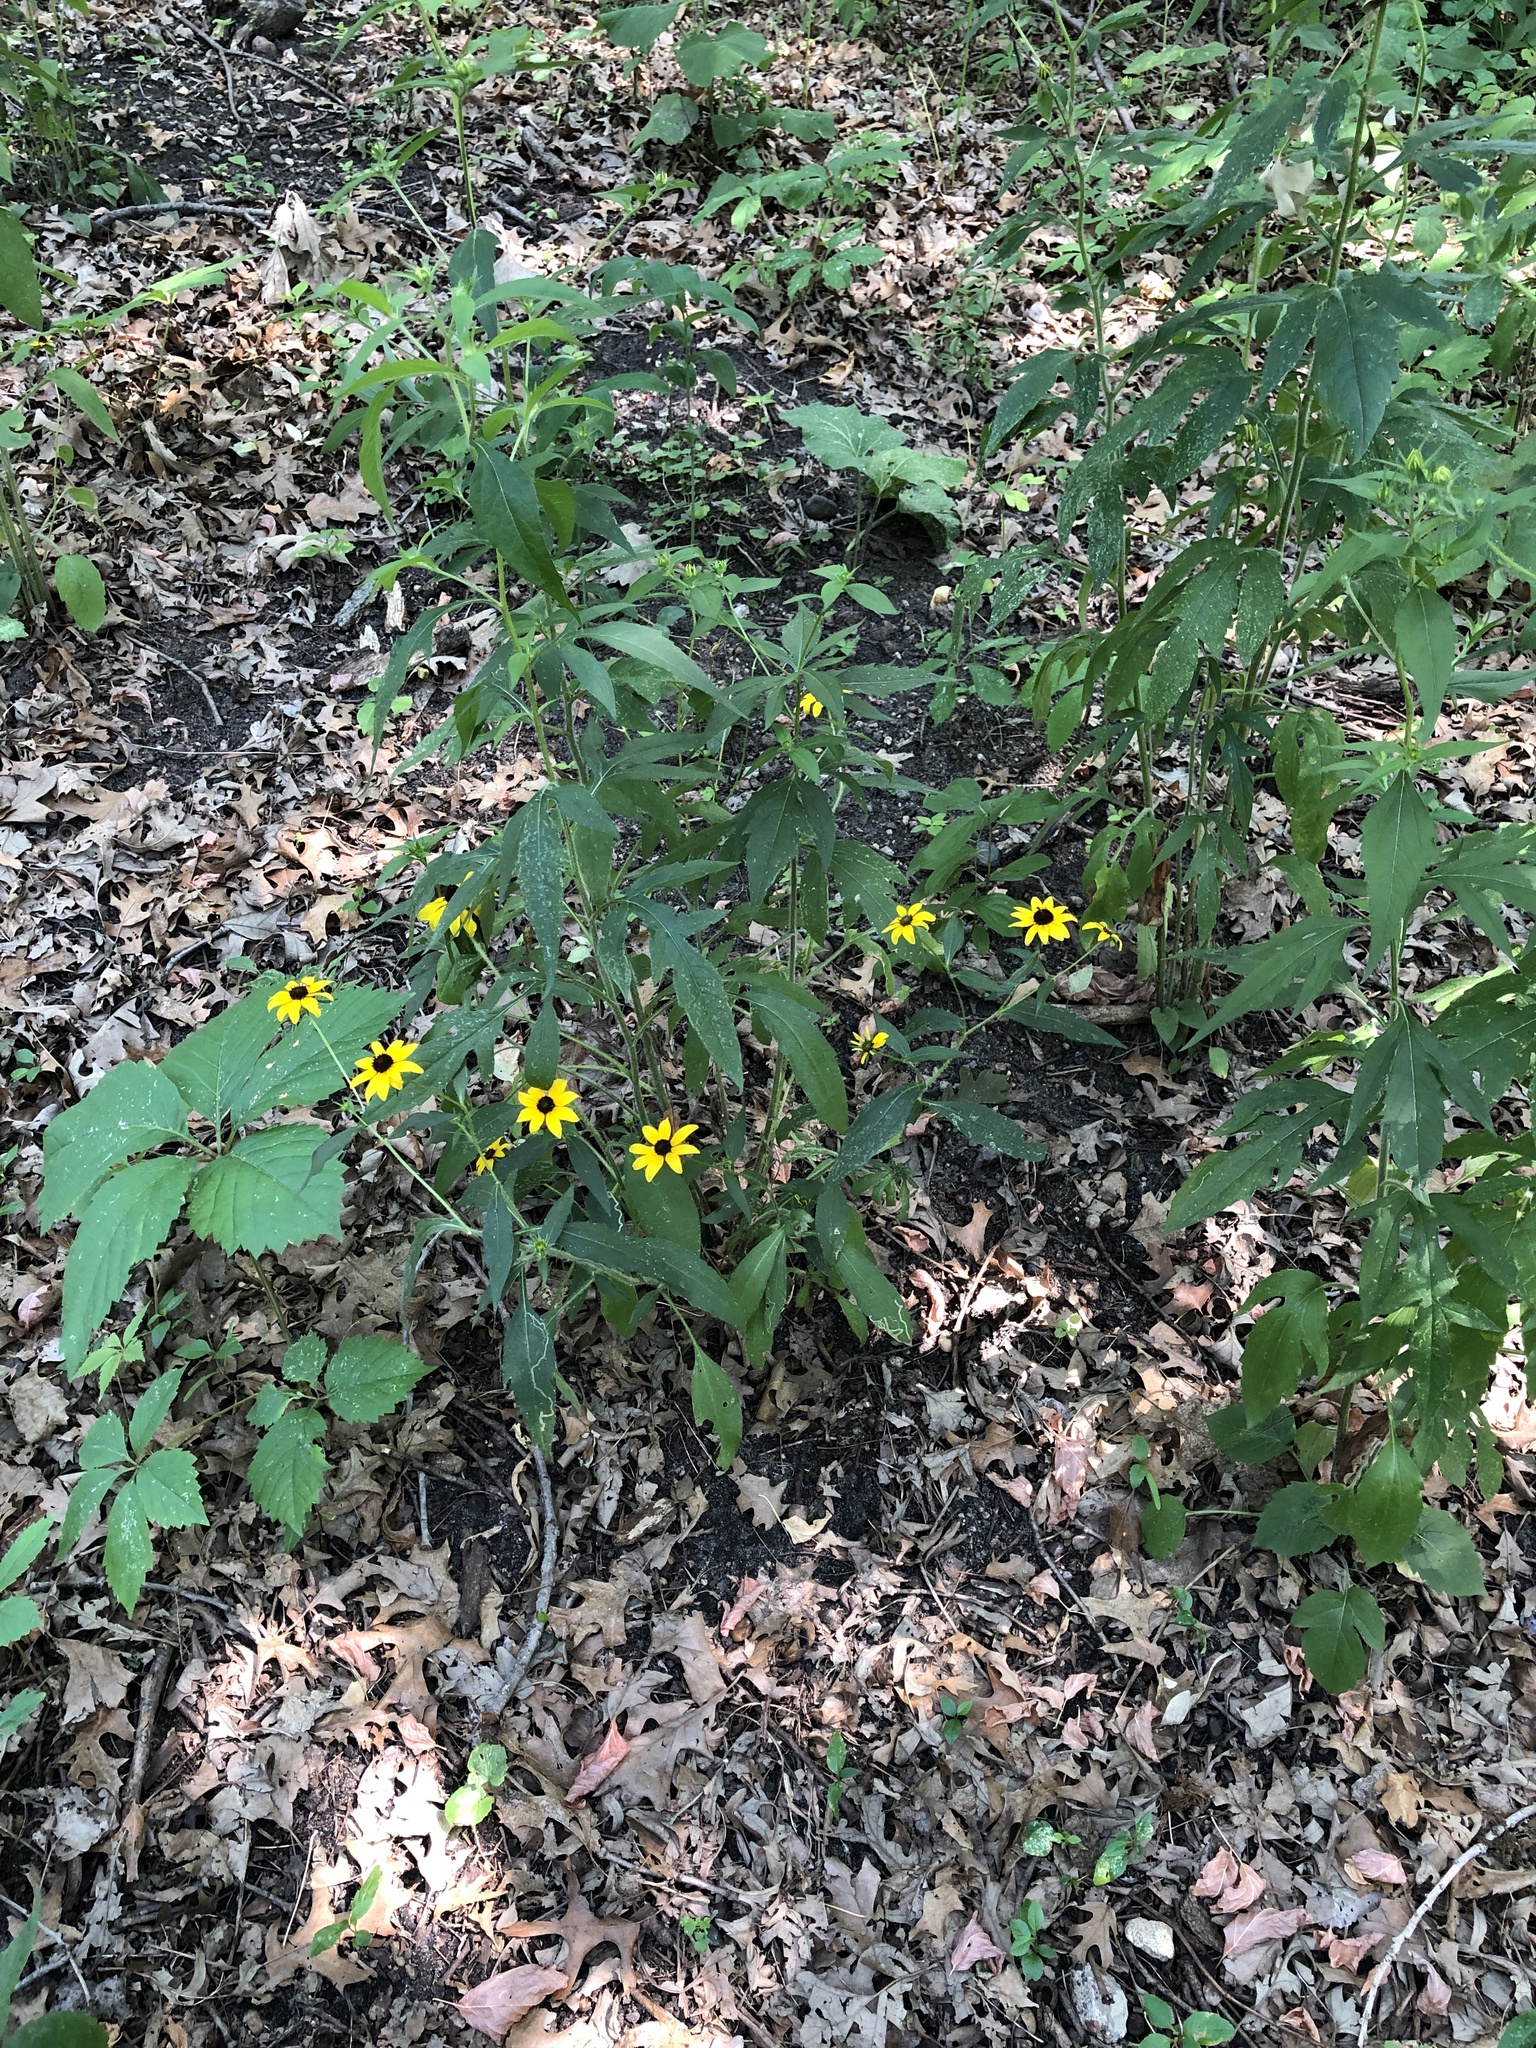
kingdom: Plantae
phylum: Tracheophyta
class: Magnoliopsida
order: Asterales
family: Asteraceae
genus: Rudbeckia
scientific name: Rudbeckia triloba
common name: Thin-leaved coneflower
